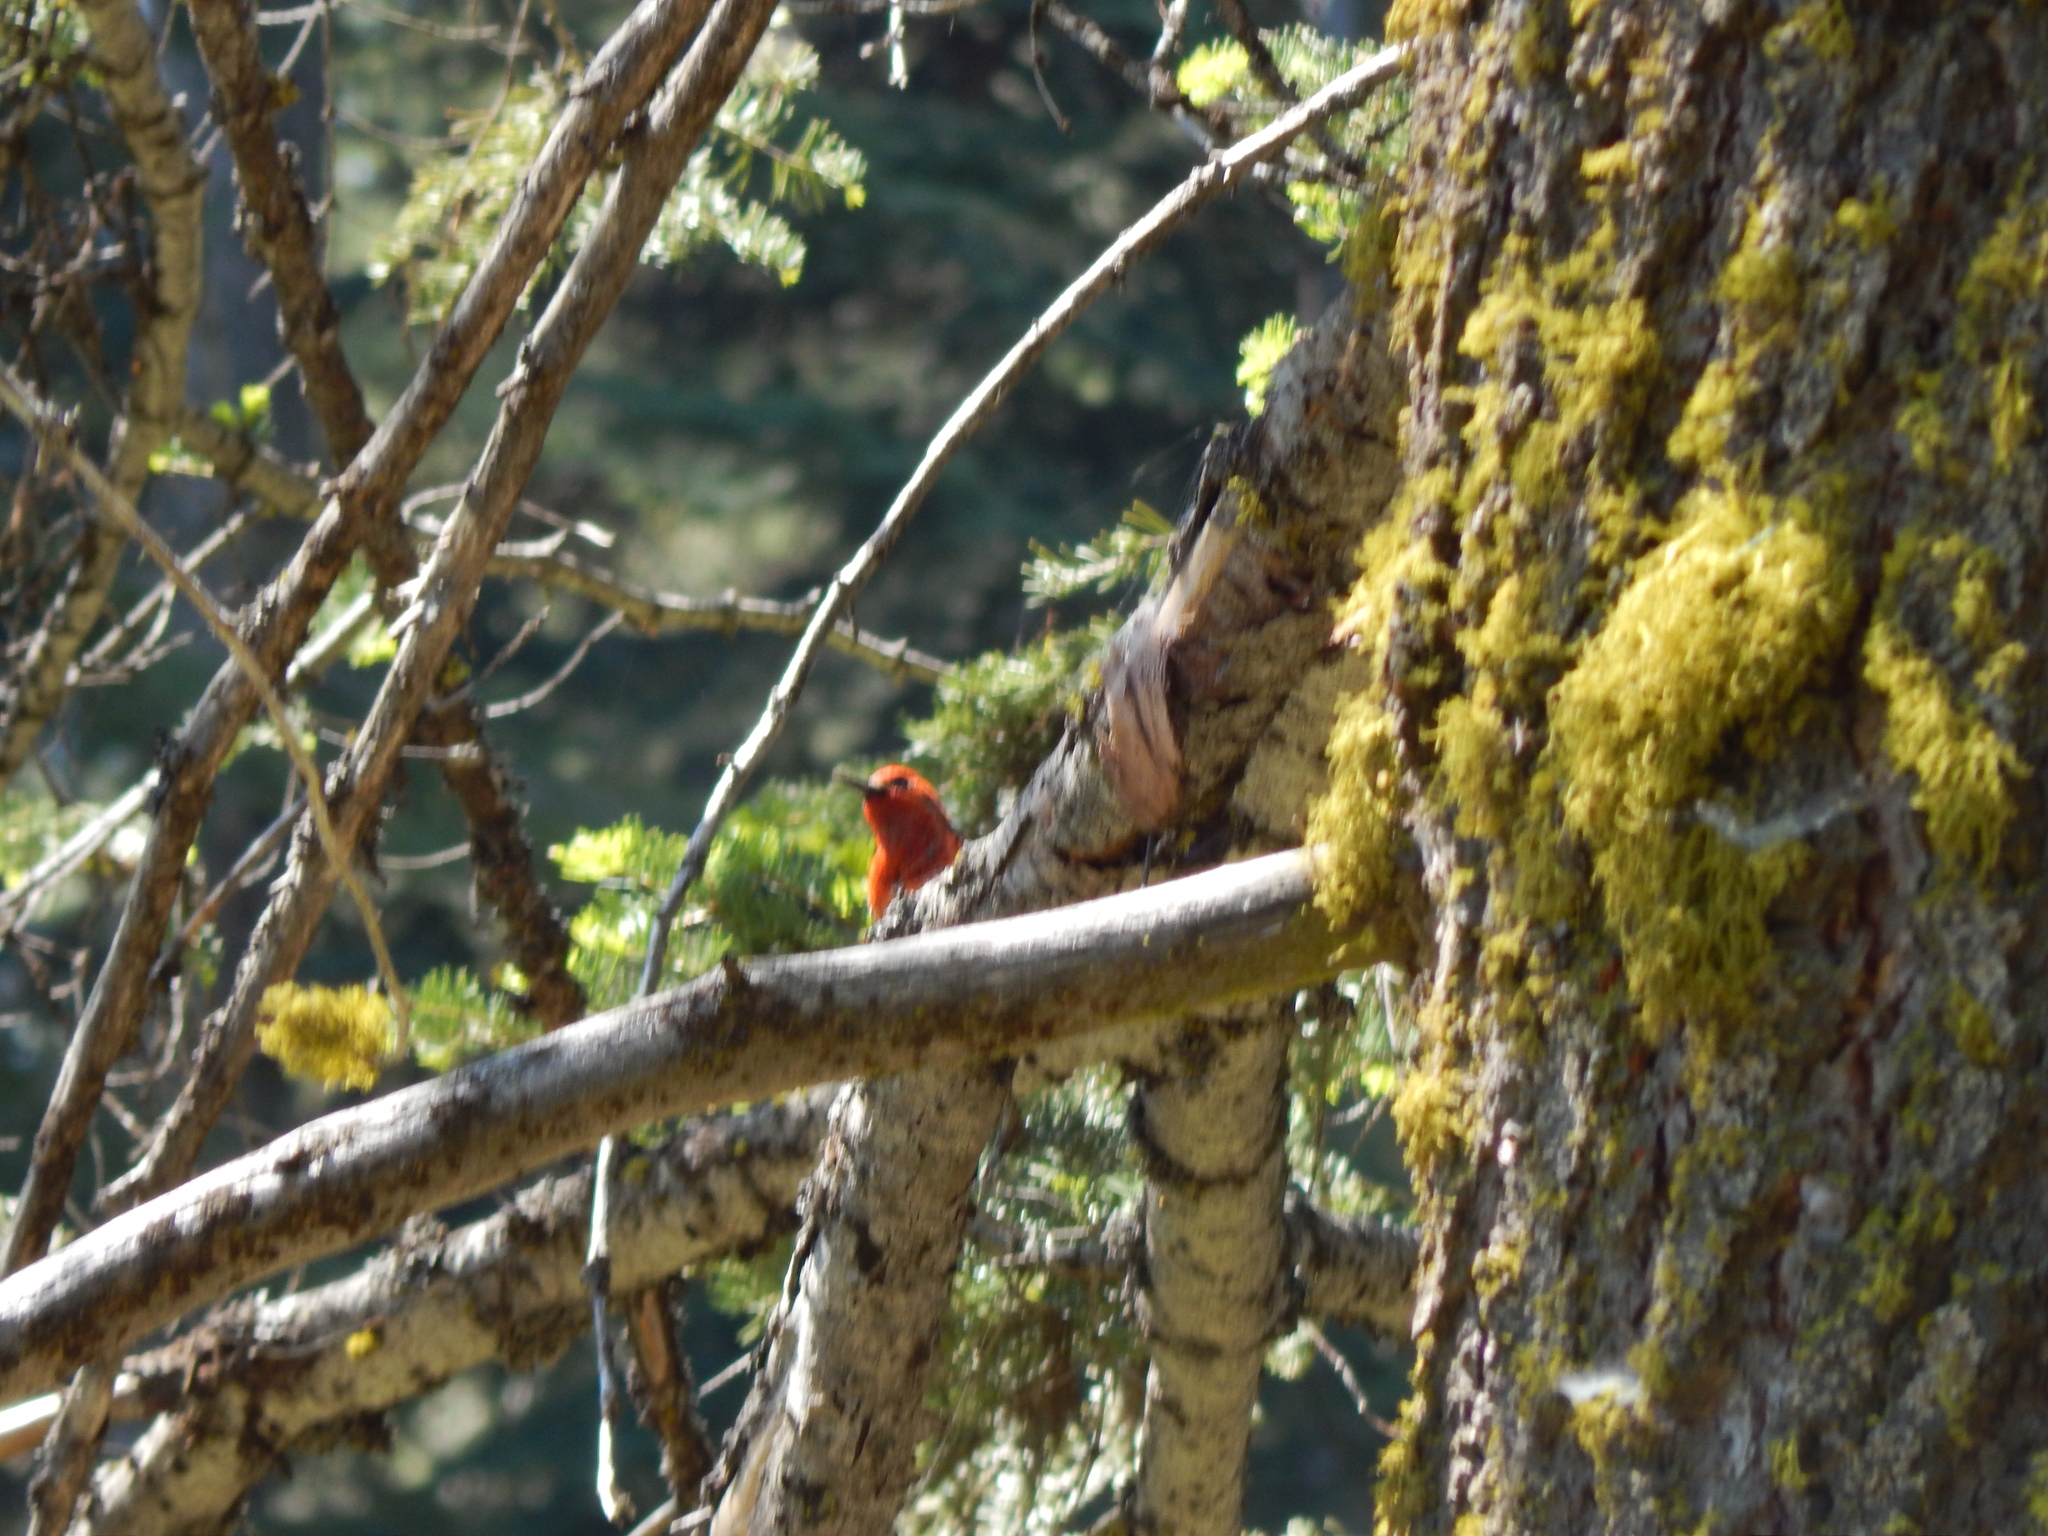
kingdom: Animalia
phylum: Chordata
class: Aves
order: Piciformes
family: Picidae
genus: Sphyrapicus
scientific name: Sphyrapicus ruber
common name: Red-breasted sapsucker
